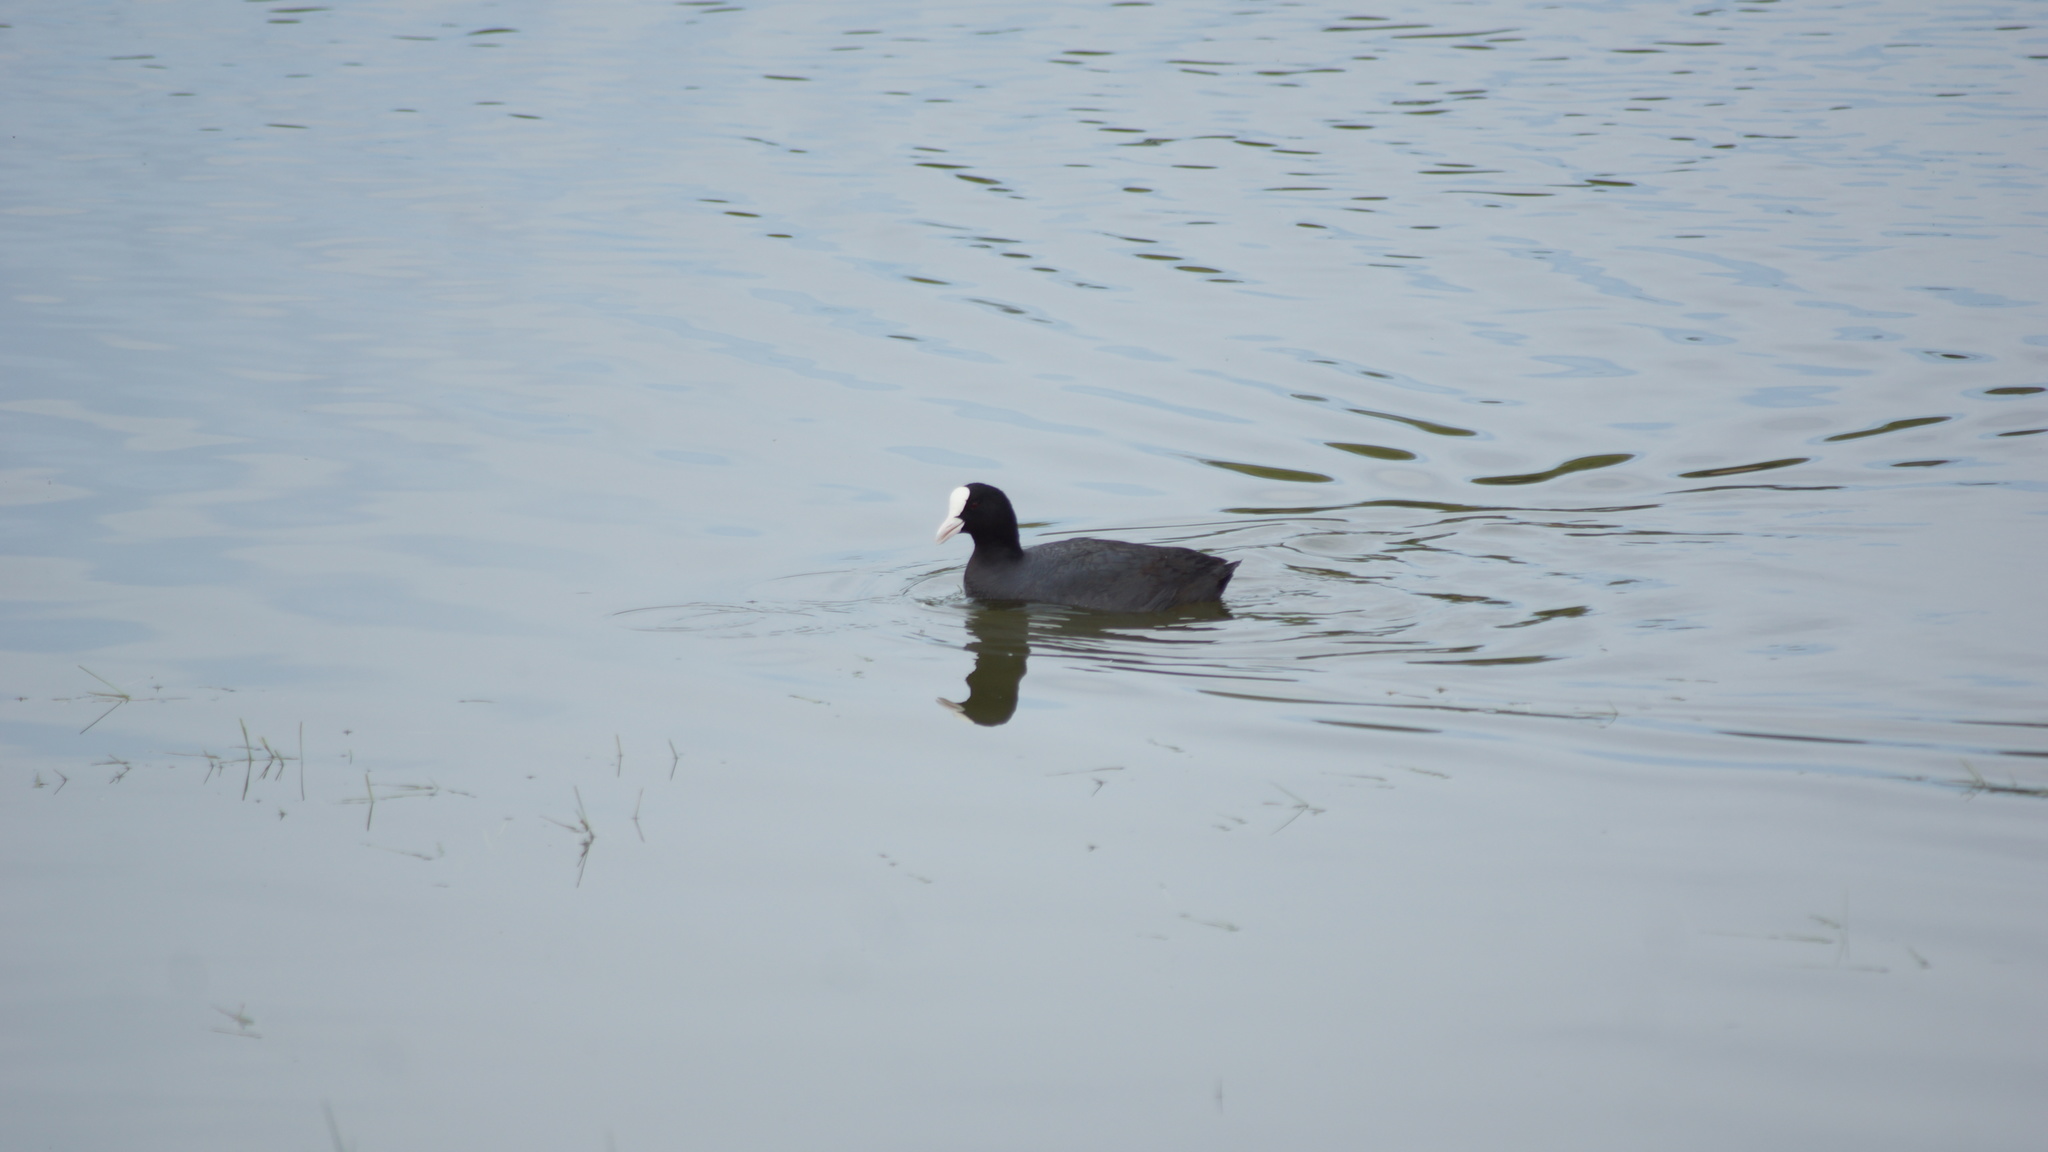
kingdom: Animalia
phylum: Chordata
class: Aves
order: Gruiformes
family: Rallidae
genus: Fulica
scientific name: Fulica atra
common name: Eurasian coot
